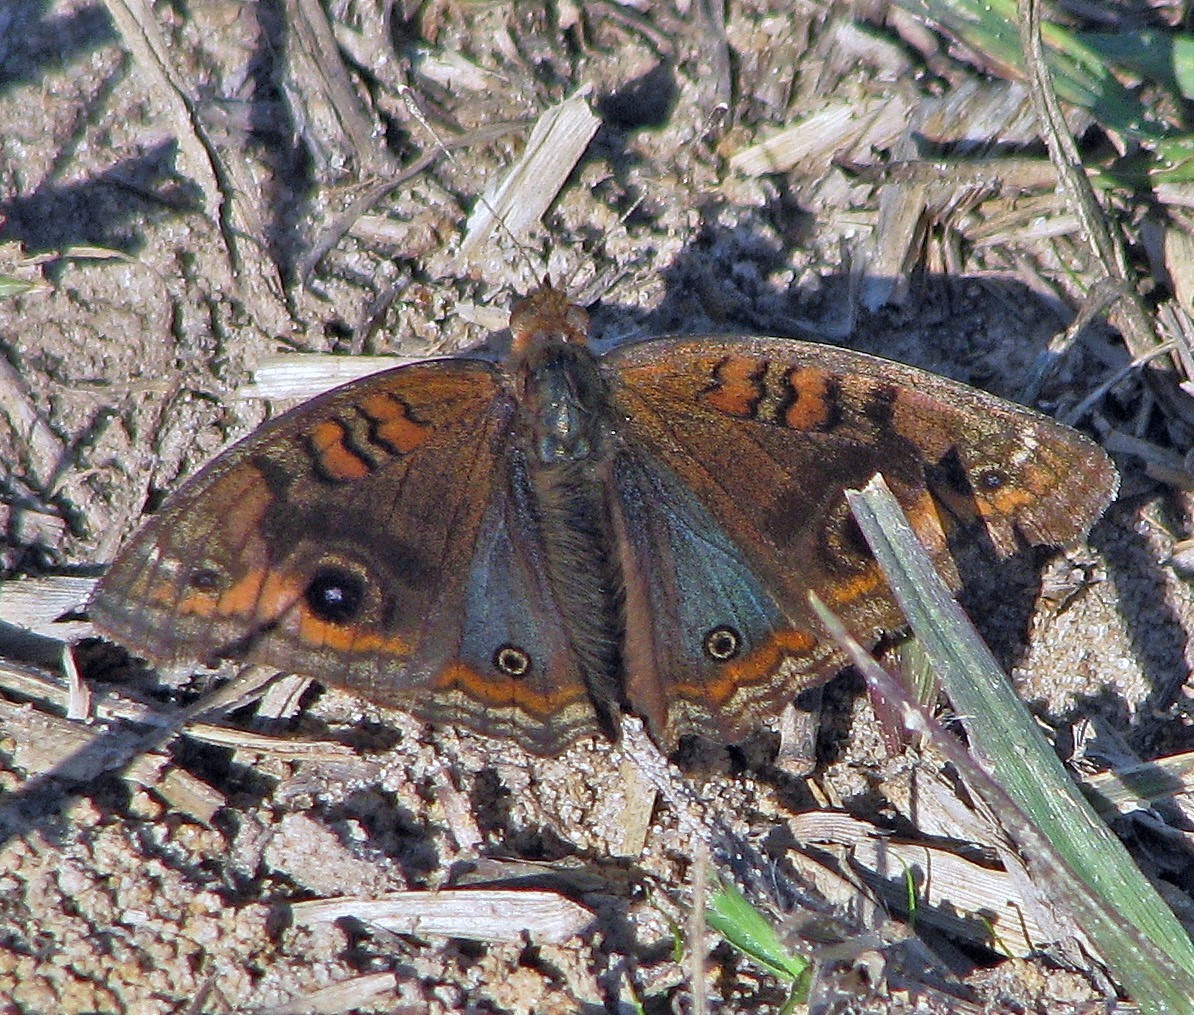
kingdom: Animalia
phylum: Arthropoda
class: Insecta
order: Lepidoptera
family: Nymphalidae
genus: Junonia
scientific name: Junonia lavinia
